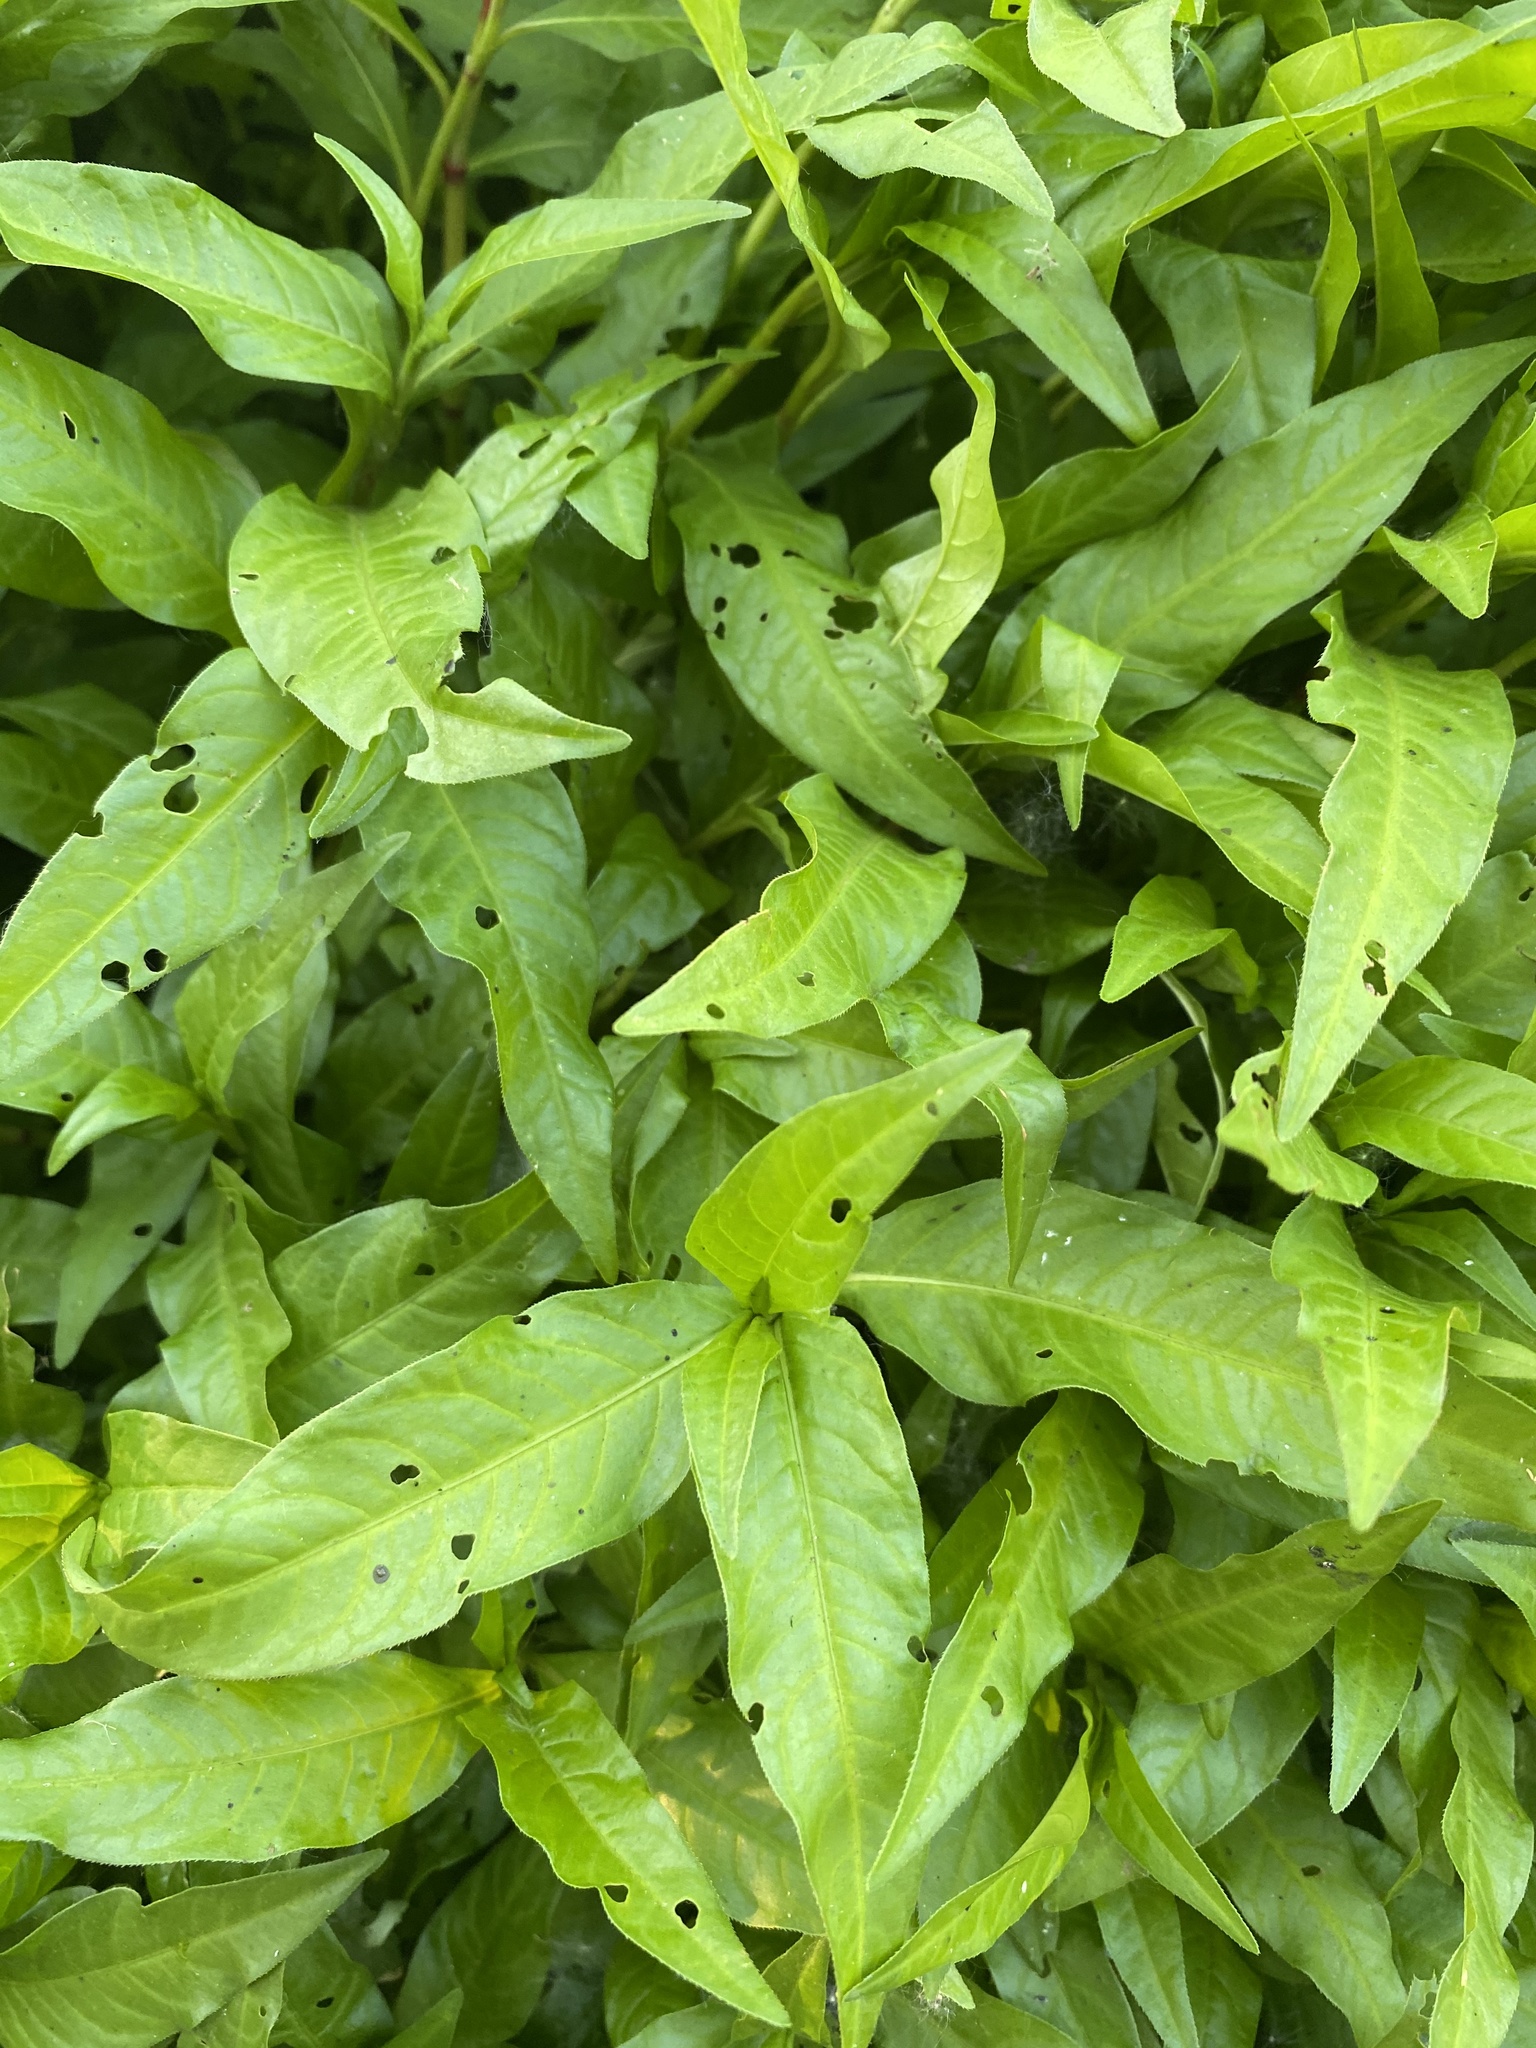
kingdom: Plantae
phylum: Tracheophyta
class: Magnoliopsida
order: Caryophyllales
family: Polygonaceae
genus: Persicaria
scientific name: Persicaria hydropiper
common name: Water-pepper
